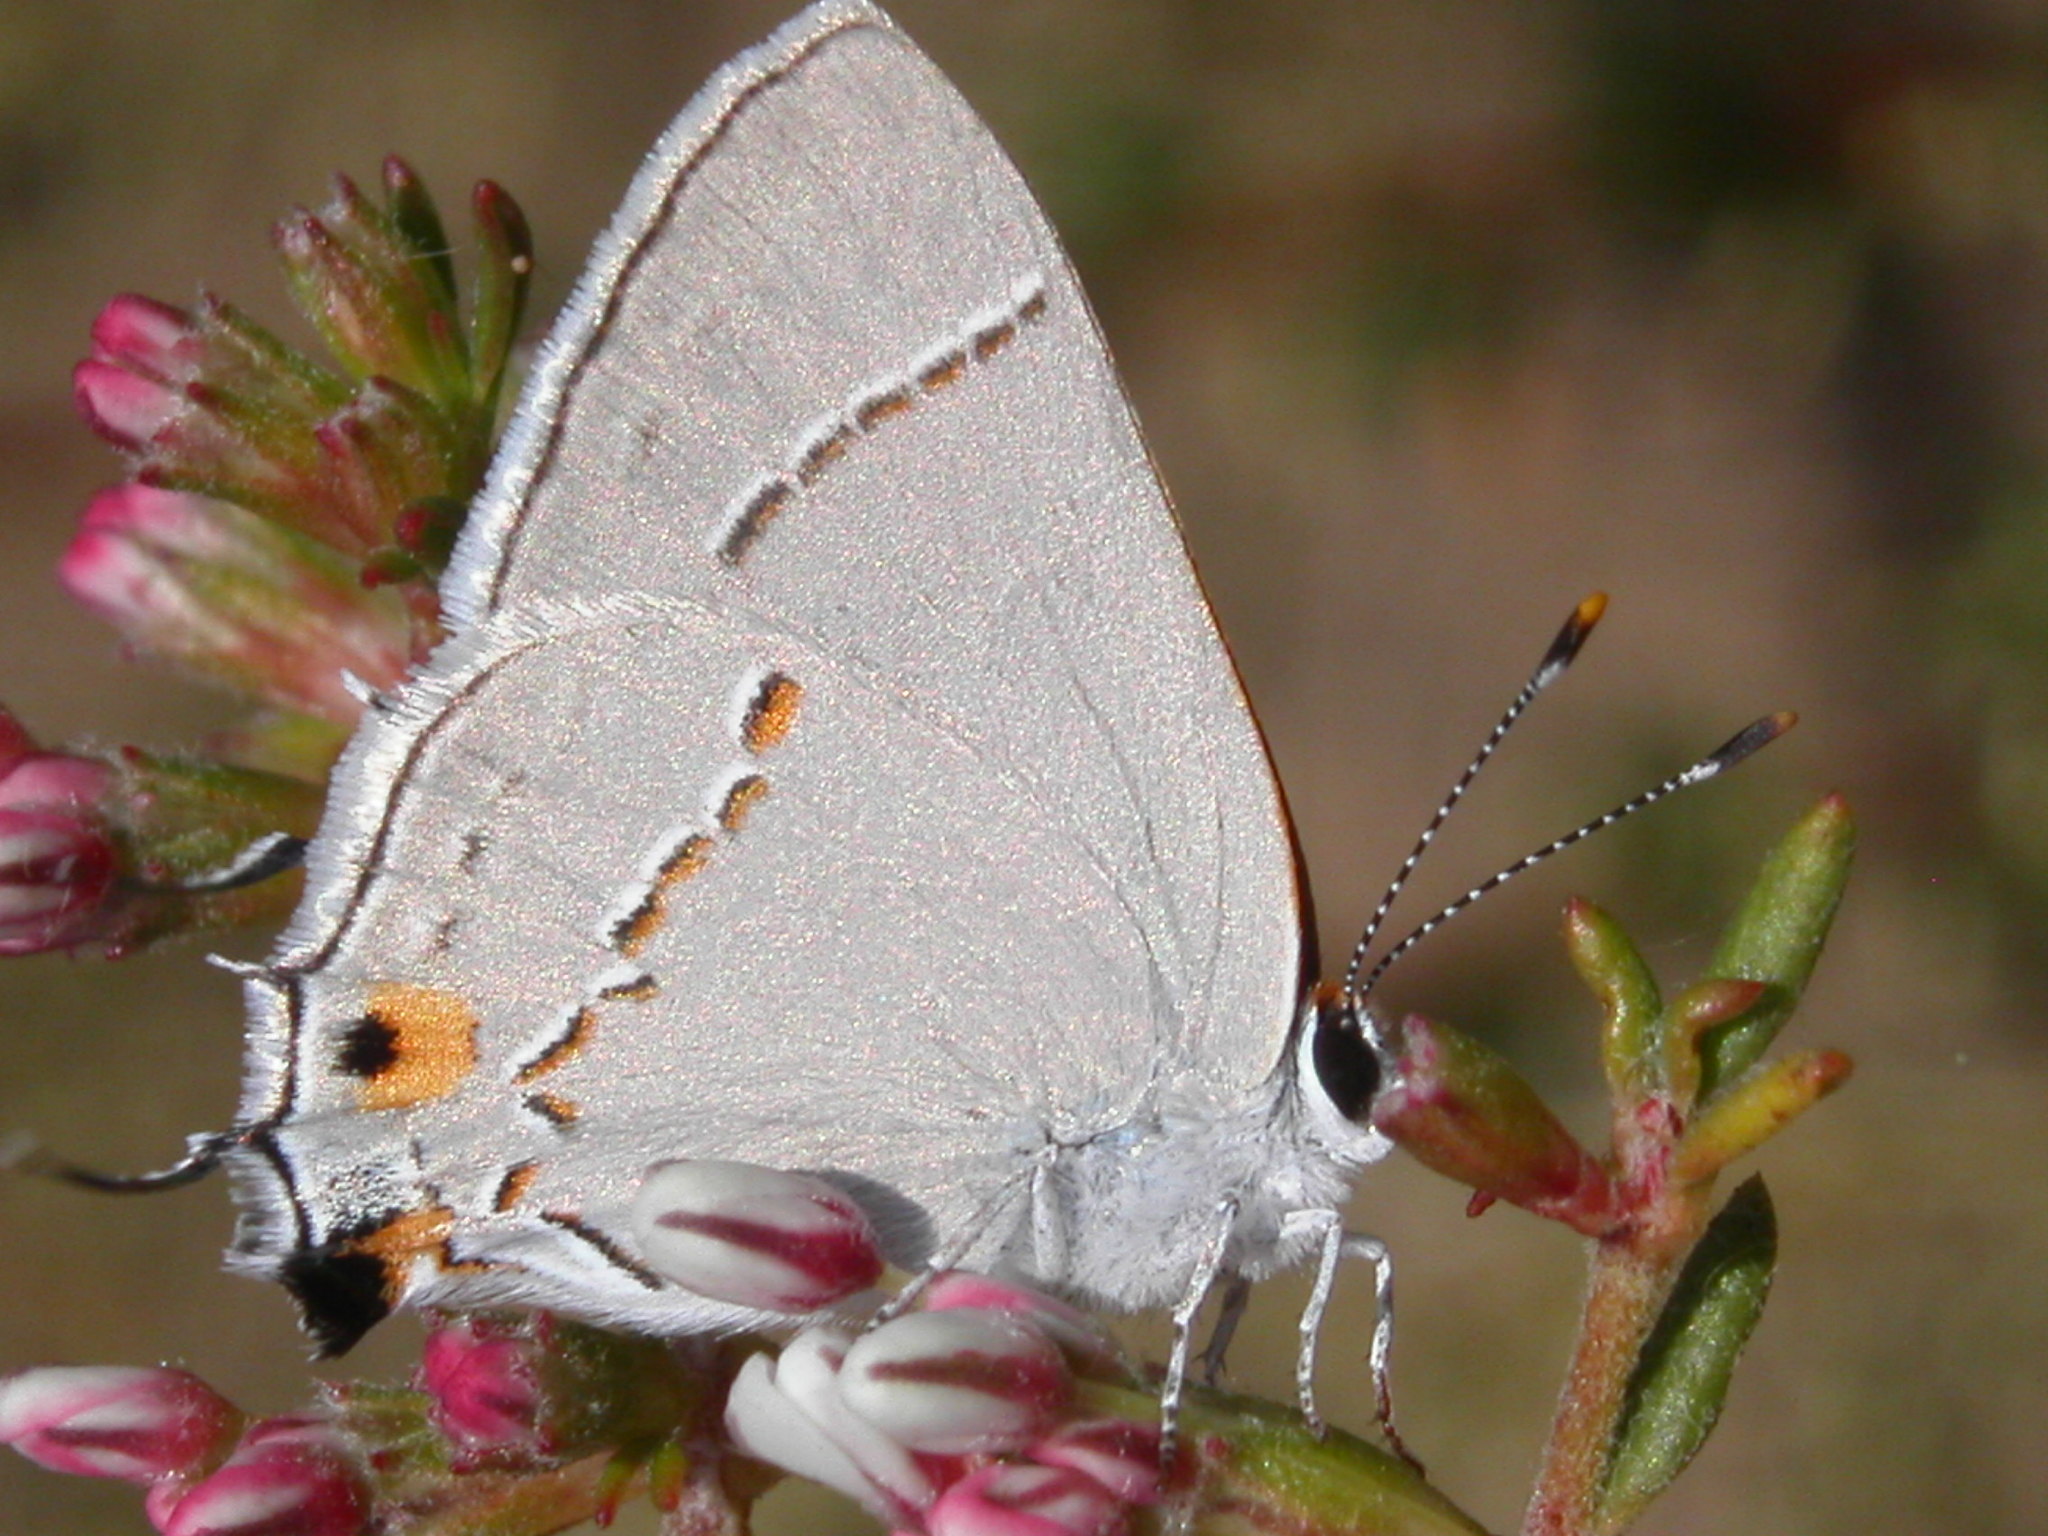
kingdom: Animalia
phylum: Arthropoda
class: Insecta
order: Lepidoptera
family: Lycaenidae
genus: Strymon
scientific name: Strymon melinus
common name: Gray hairstreak
